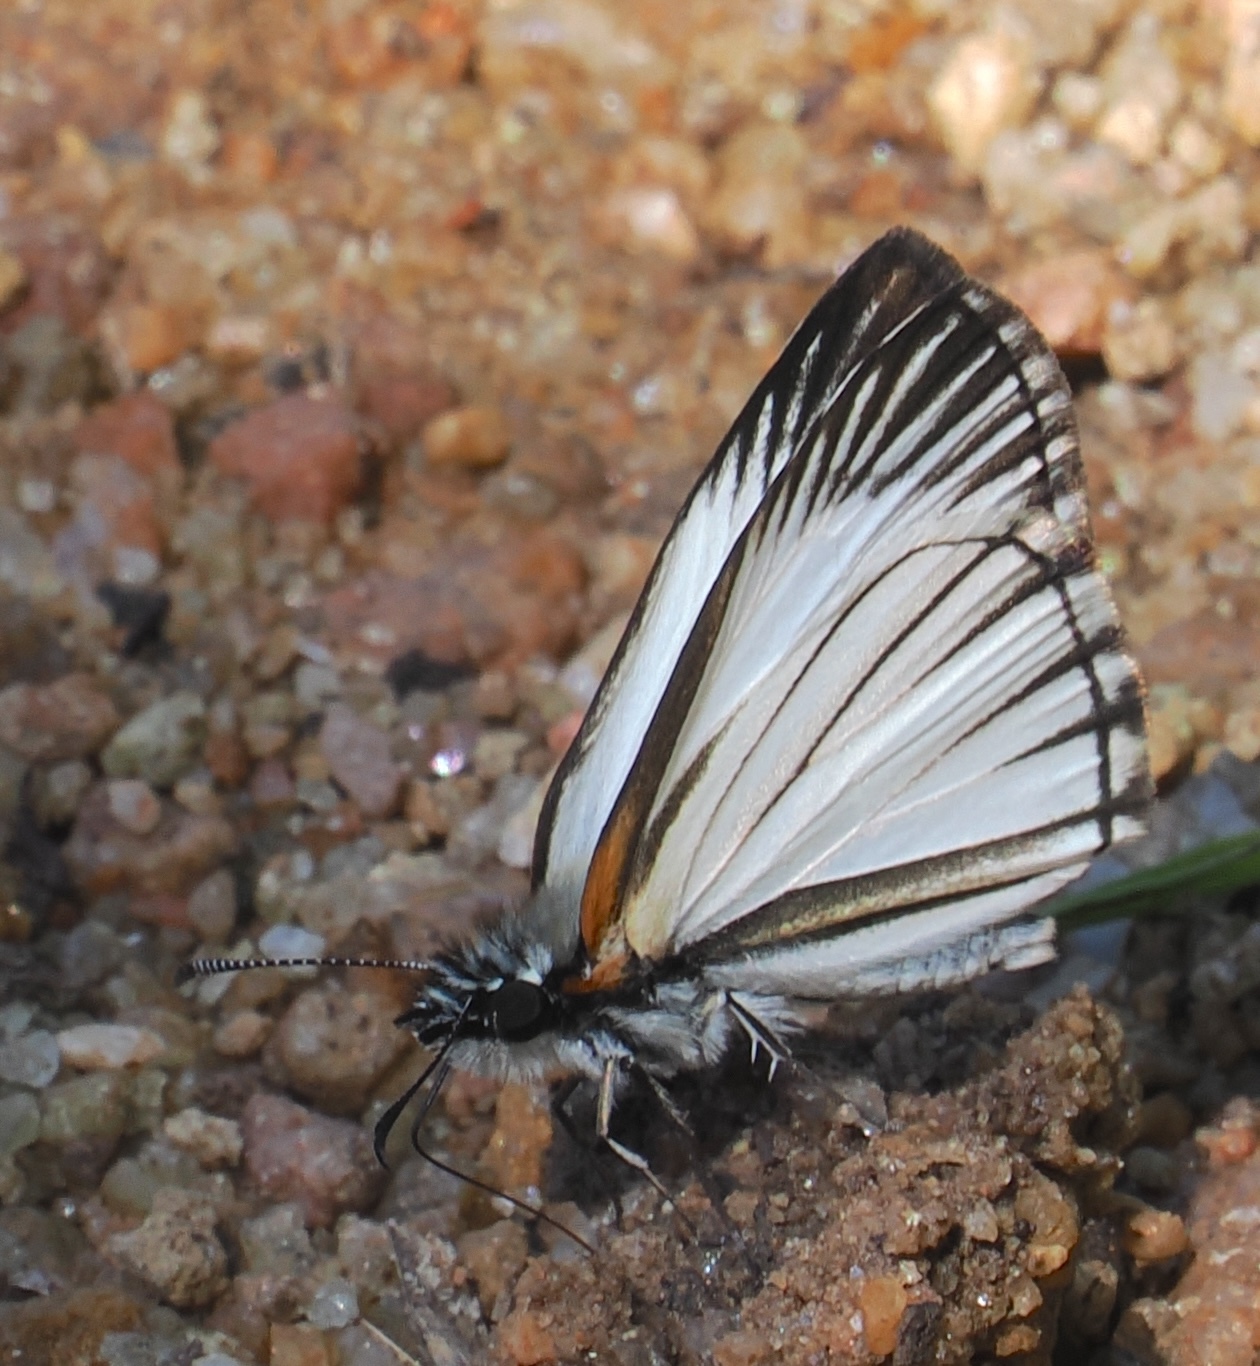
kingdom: Animalia
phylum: Arthropoda
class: Insecta
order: Lepidoptera
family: Hesperiidae
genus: Heliopetes
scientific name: Heliopetes arsalte
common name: Veined white-skipper
